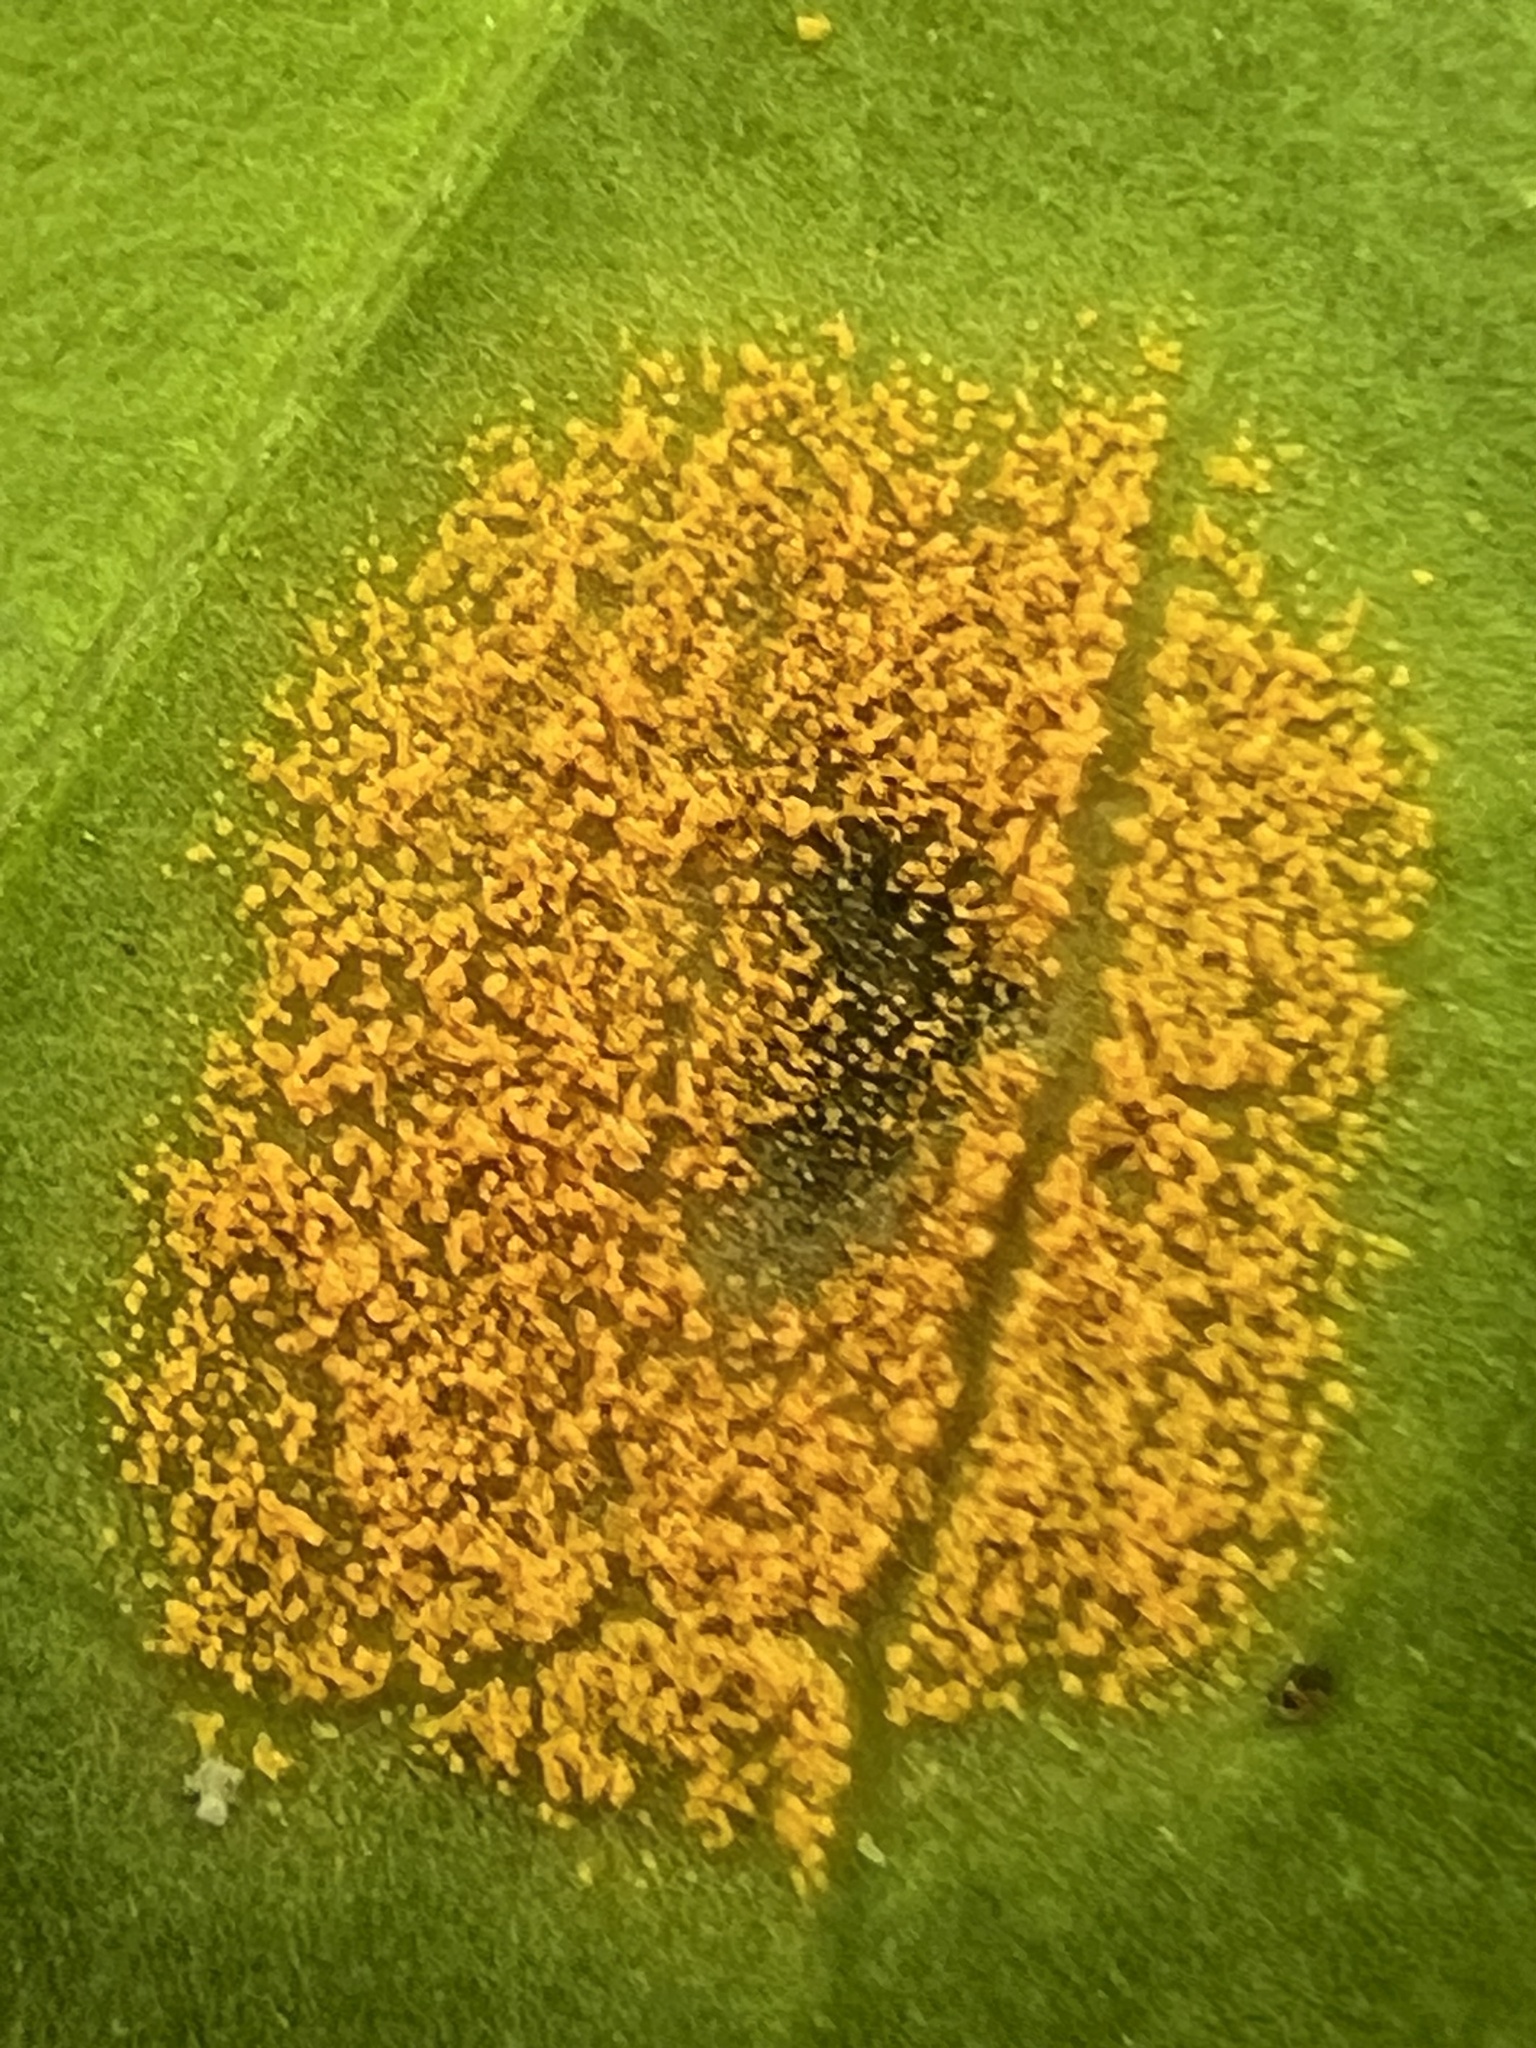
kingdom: Fungi
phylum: Basidiomycota
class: Pucciniomycetes
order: Pucciniales
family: Zaghouaniaceae
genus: Hemileia
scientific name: Hemileia vastatrix
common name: Leaf rust of coffee
